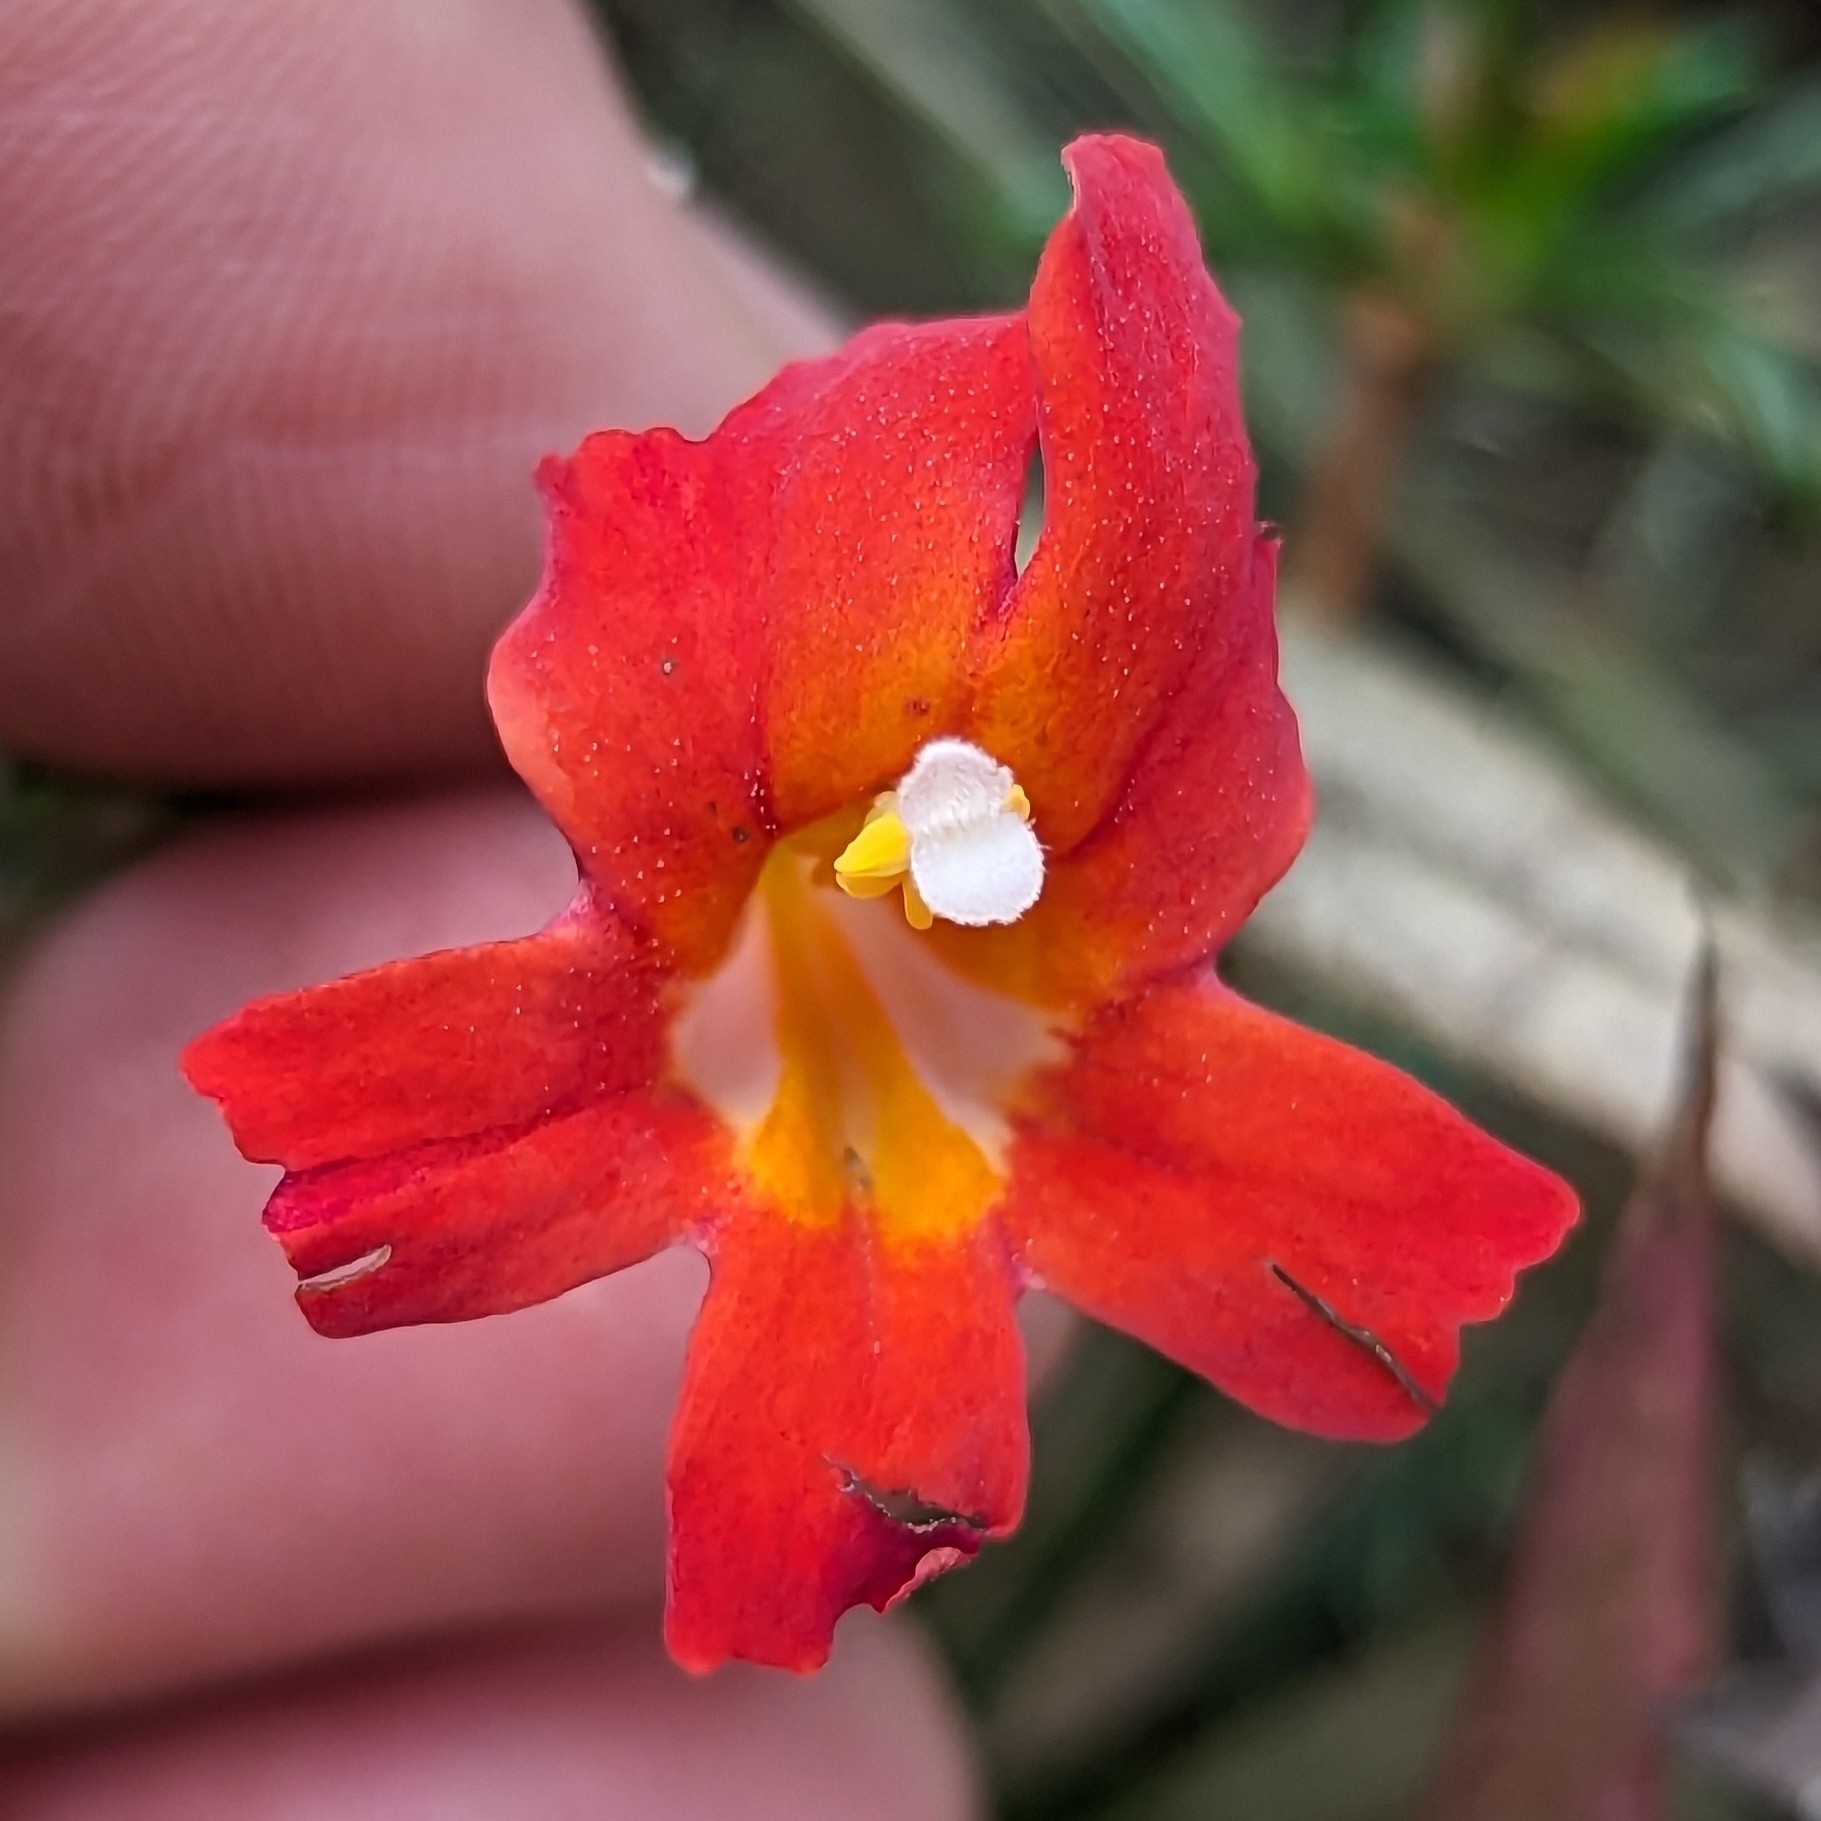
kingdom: Plantae
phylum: Tracheophyta
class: Magnoliopsida
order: Lamiales
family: Phrymaceae
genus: Diplacus
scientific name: Diplacus puniceus
